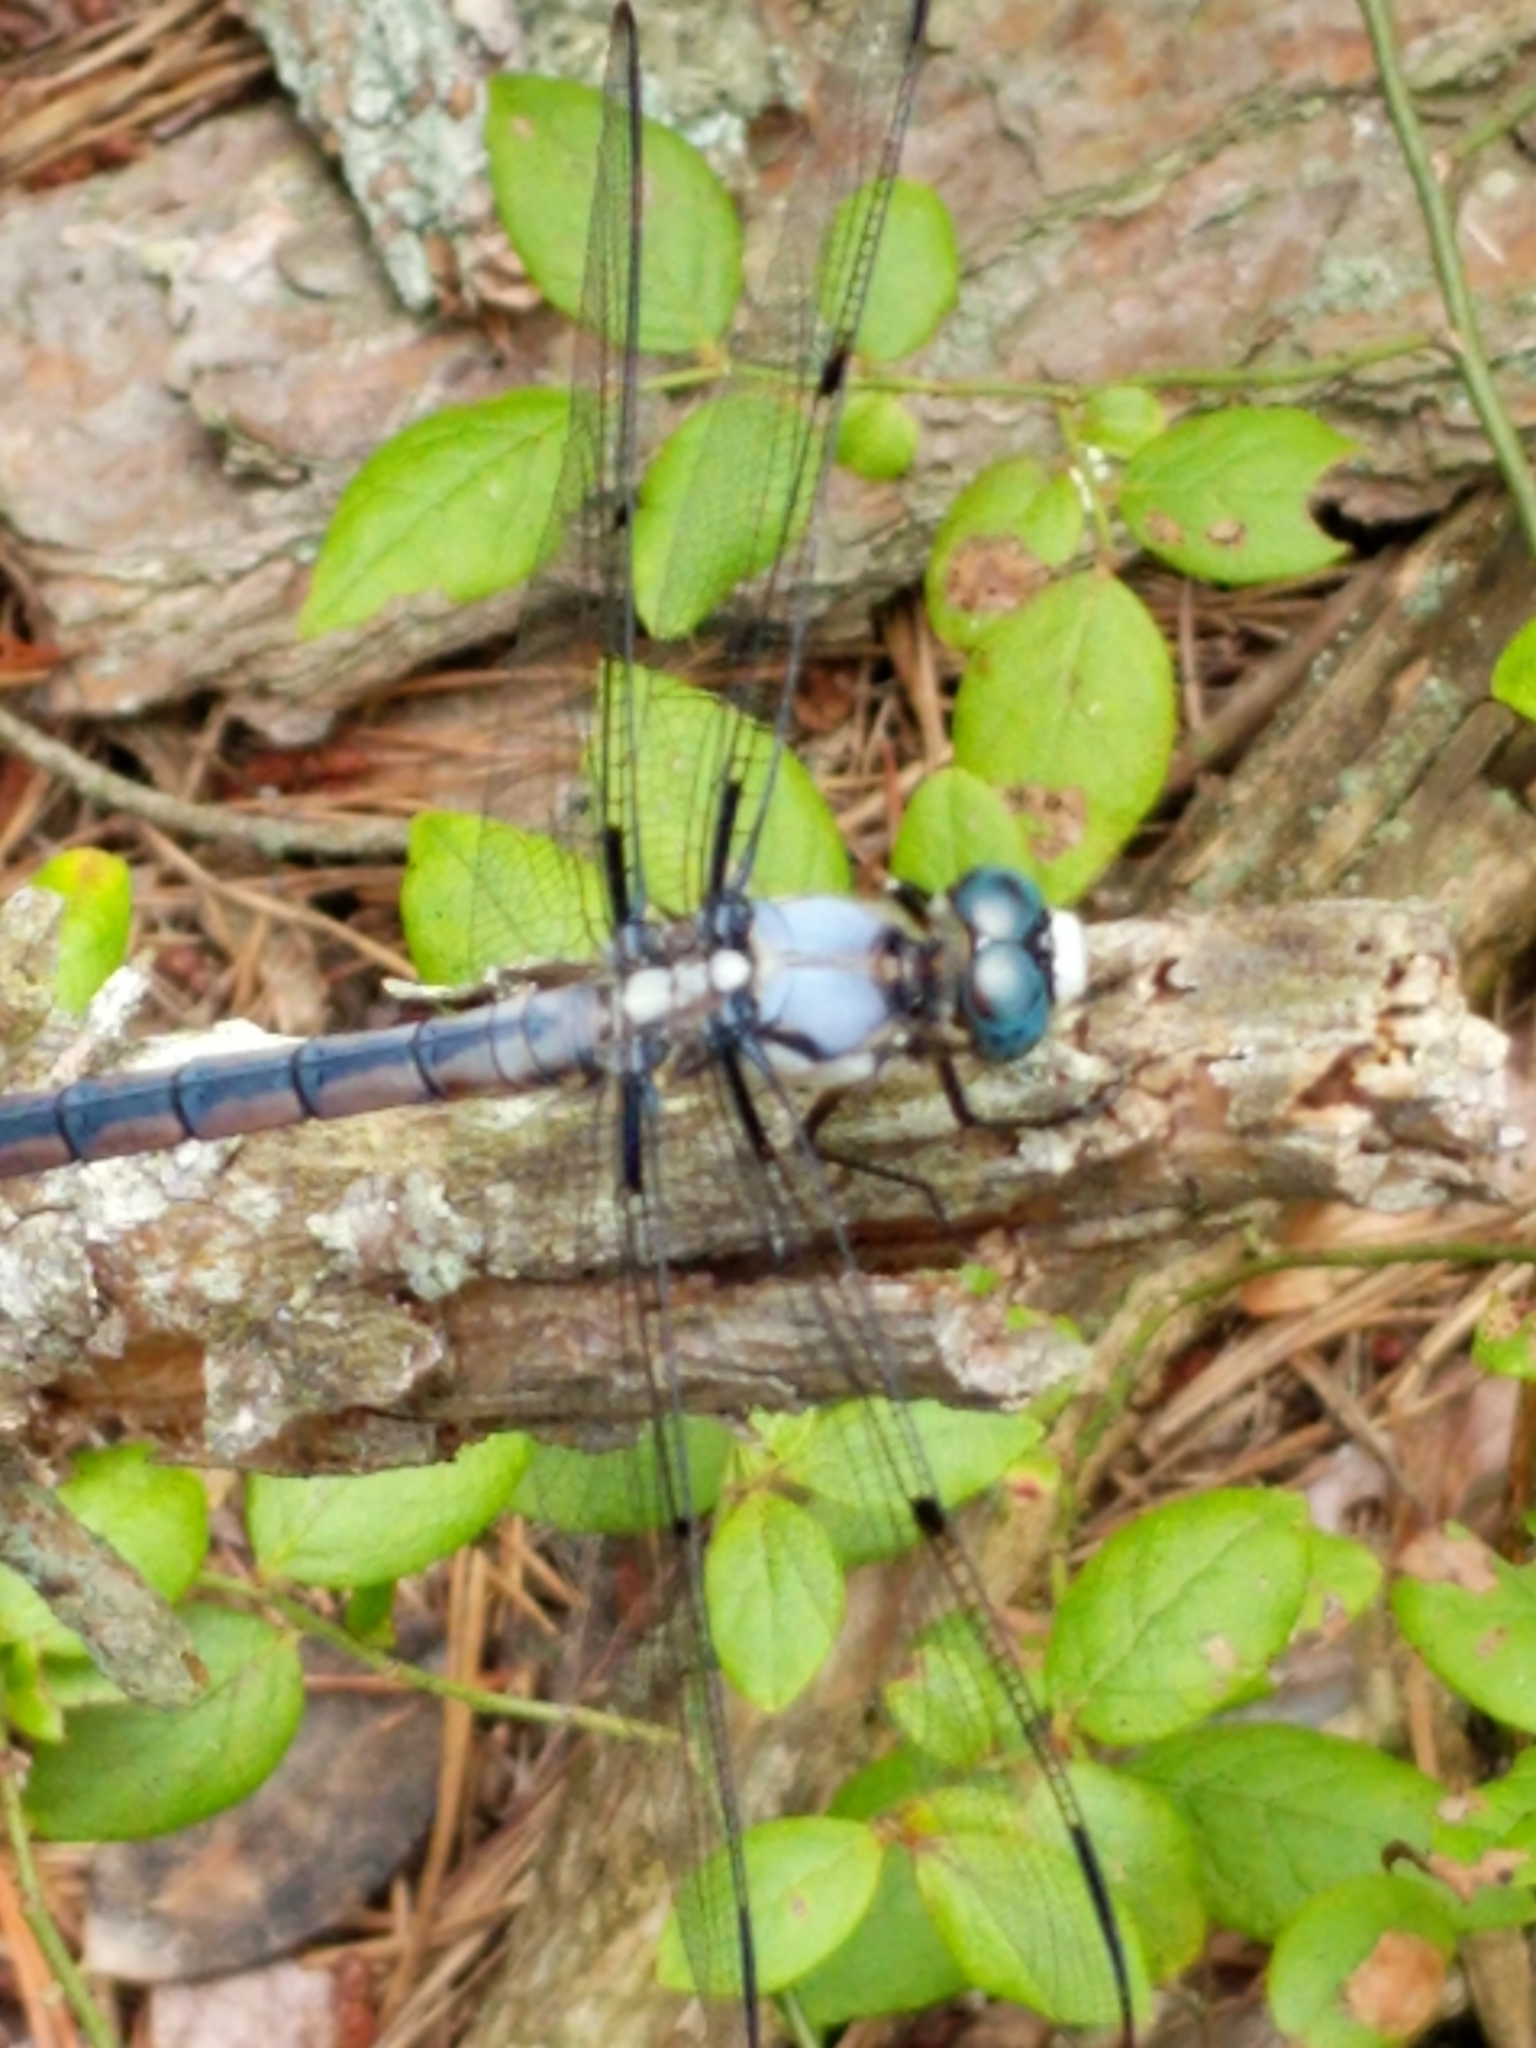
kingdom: Animalia
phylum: Arthropoda
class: Insecta
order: Odonata
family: Libellulidae
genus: Libellula
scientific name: Libellula vibrans
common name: Great blue skimmer
